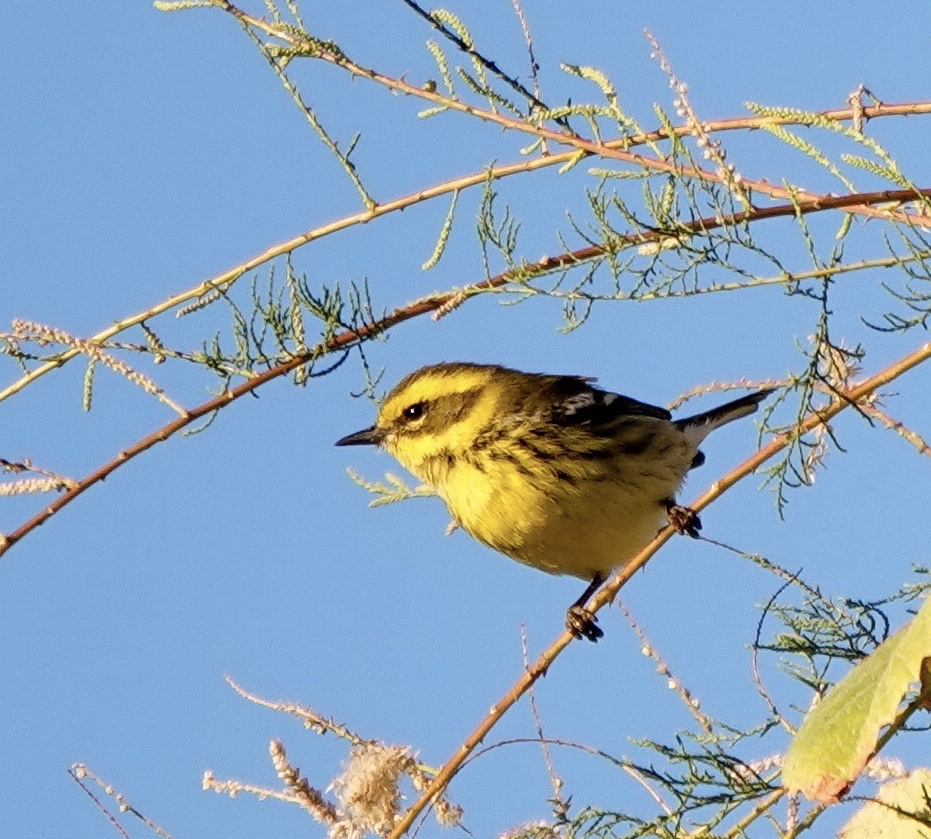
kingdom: Animalia
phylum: Chordata
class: Aves
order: Passeriformes
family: Parulidae
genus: Setophaga
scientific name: Setophaga townsendi
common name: Townsend's warbler
